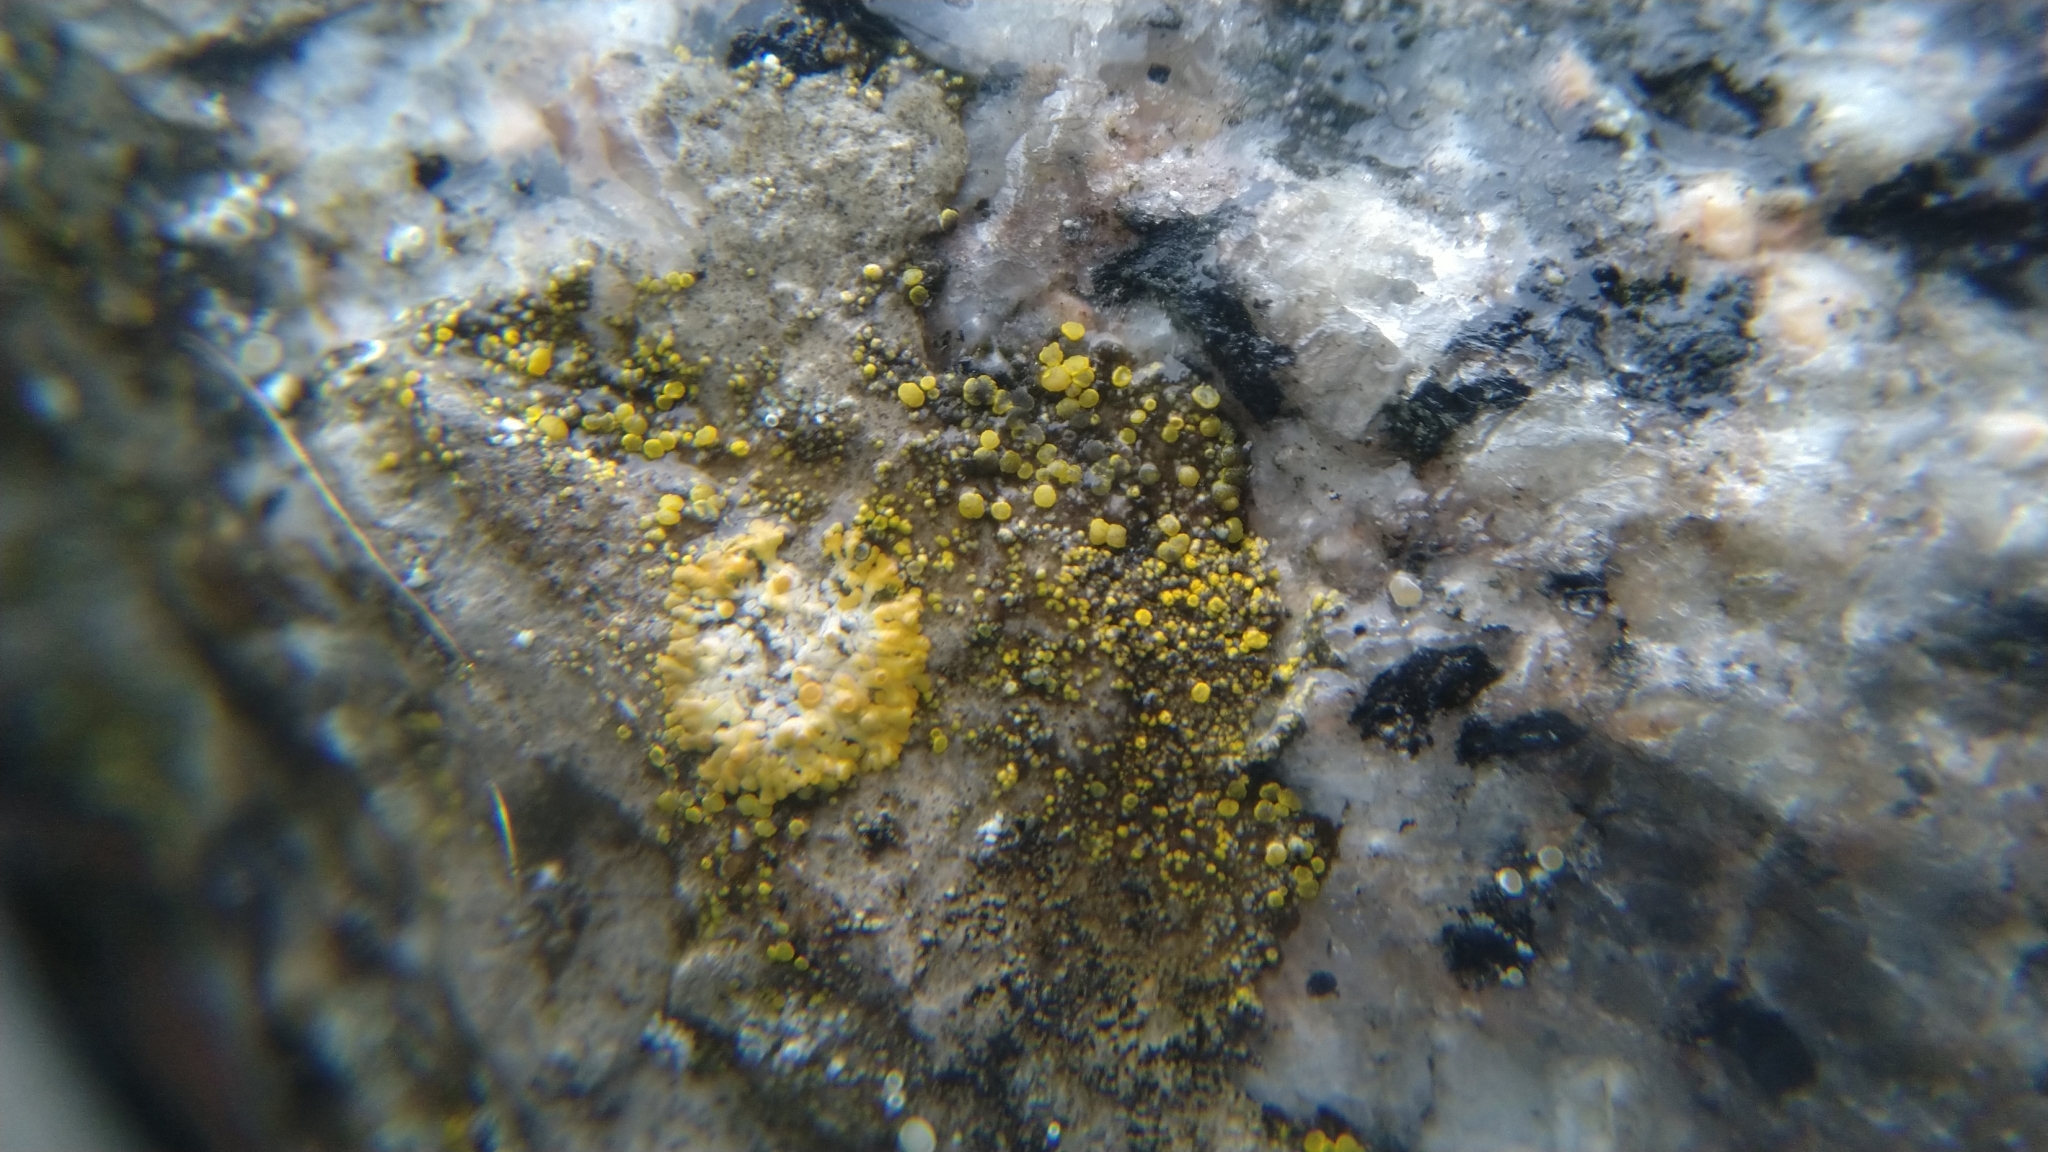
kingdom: Fungi
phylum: Ascomycota
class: Lecanoromycetes
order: Teloschistales
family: Teloschistaceae
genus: Calogaya
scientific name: Calogaya saxicola
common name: Rock jewel lichen
